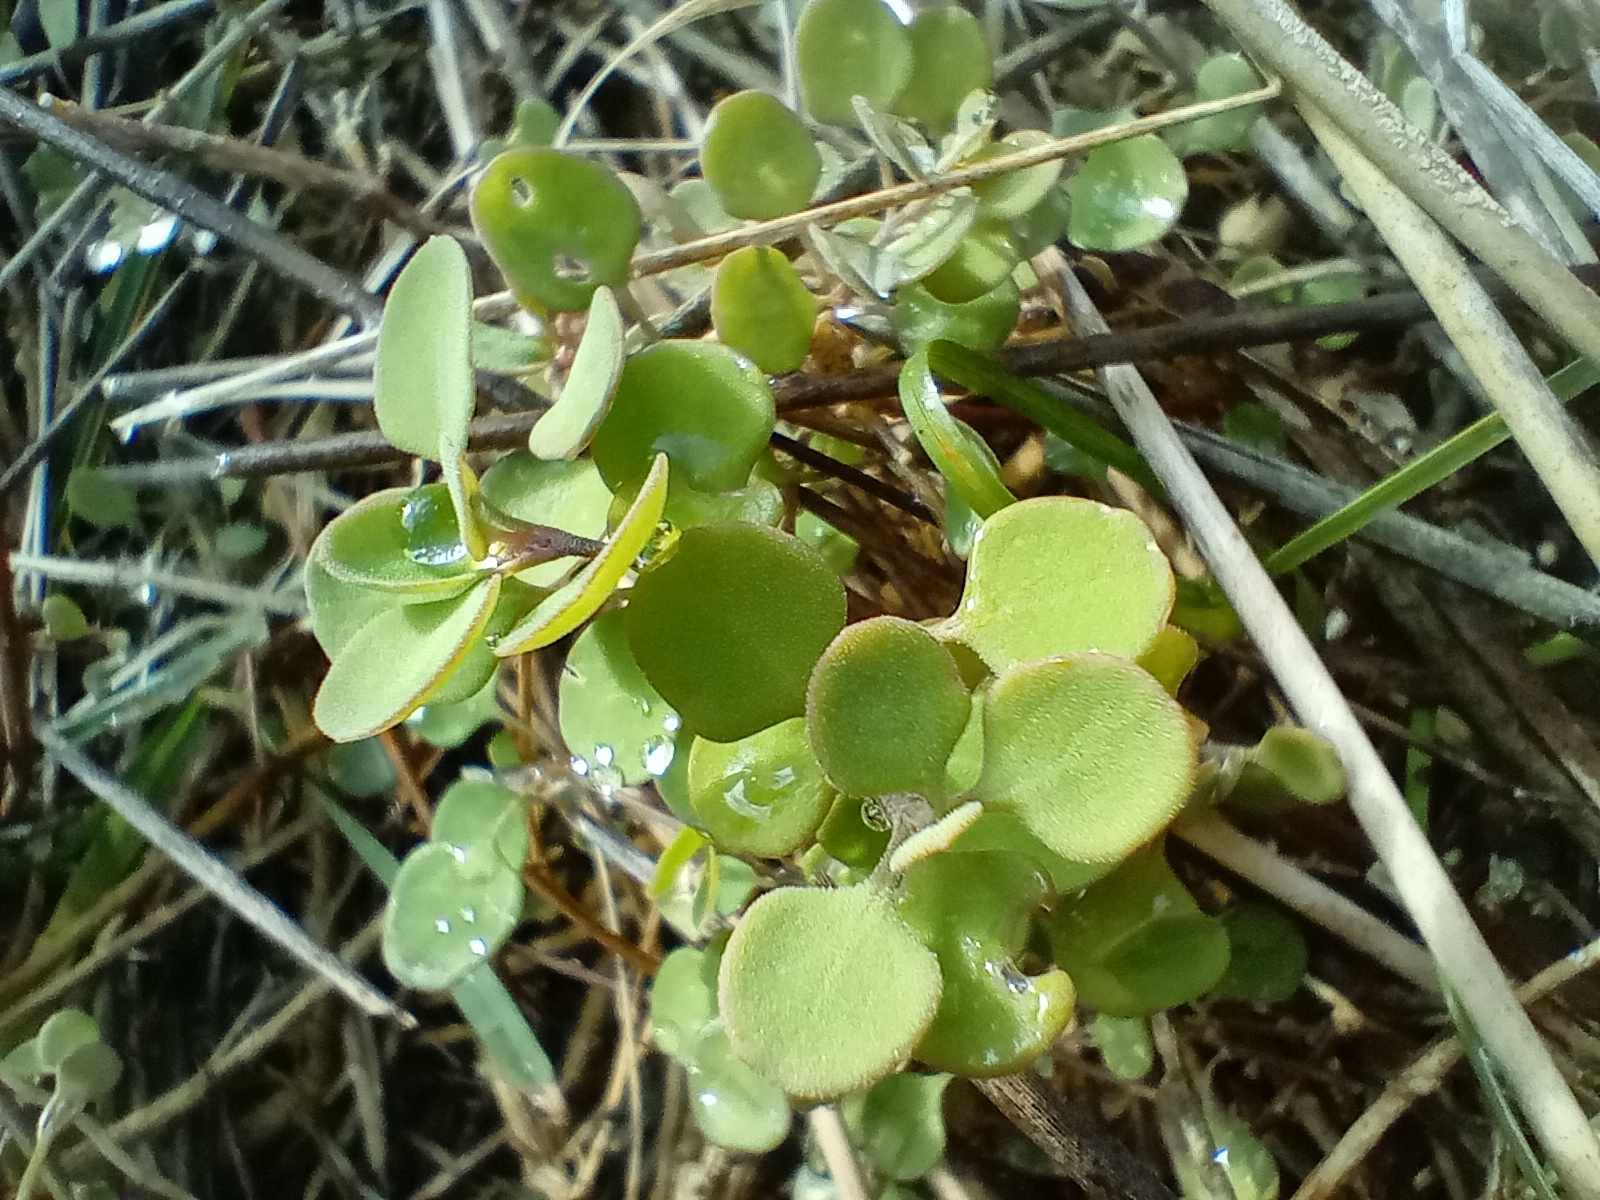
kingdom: Plantae
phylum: Tracheophyta
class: Magnoliopsida
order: Caryophyllales
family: Amaranthaceae
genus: Chenopodium
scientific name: Chenopodium allanii
